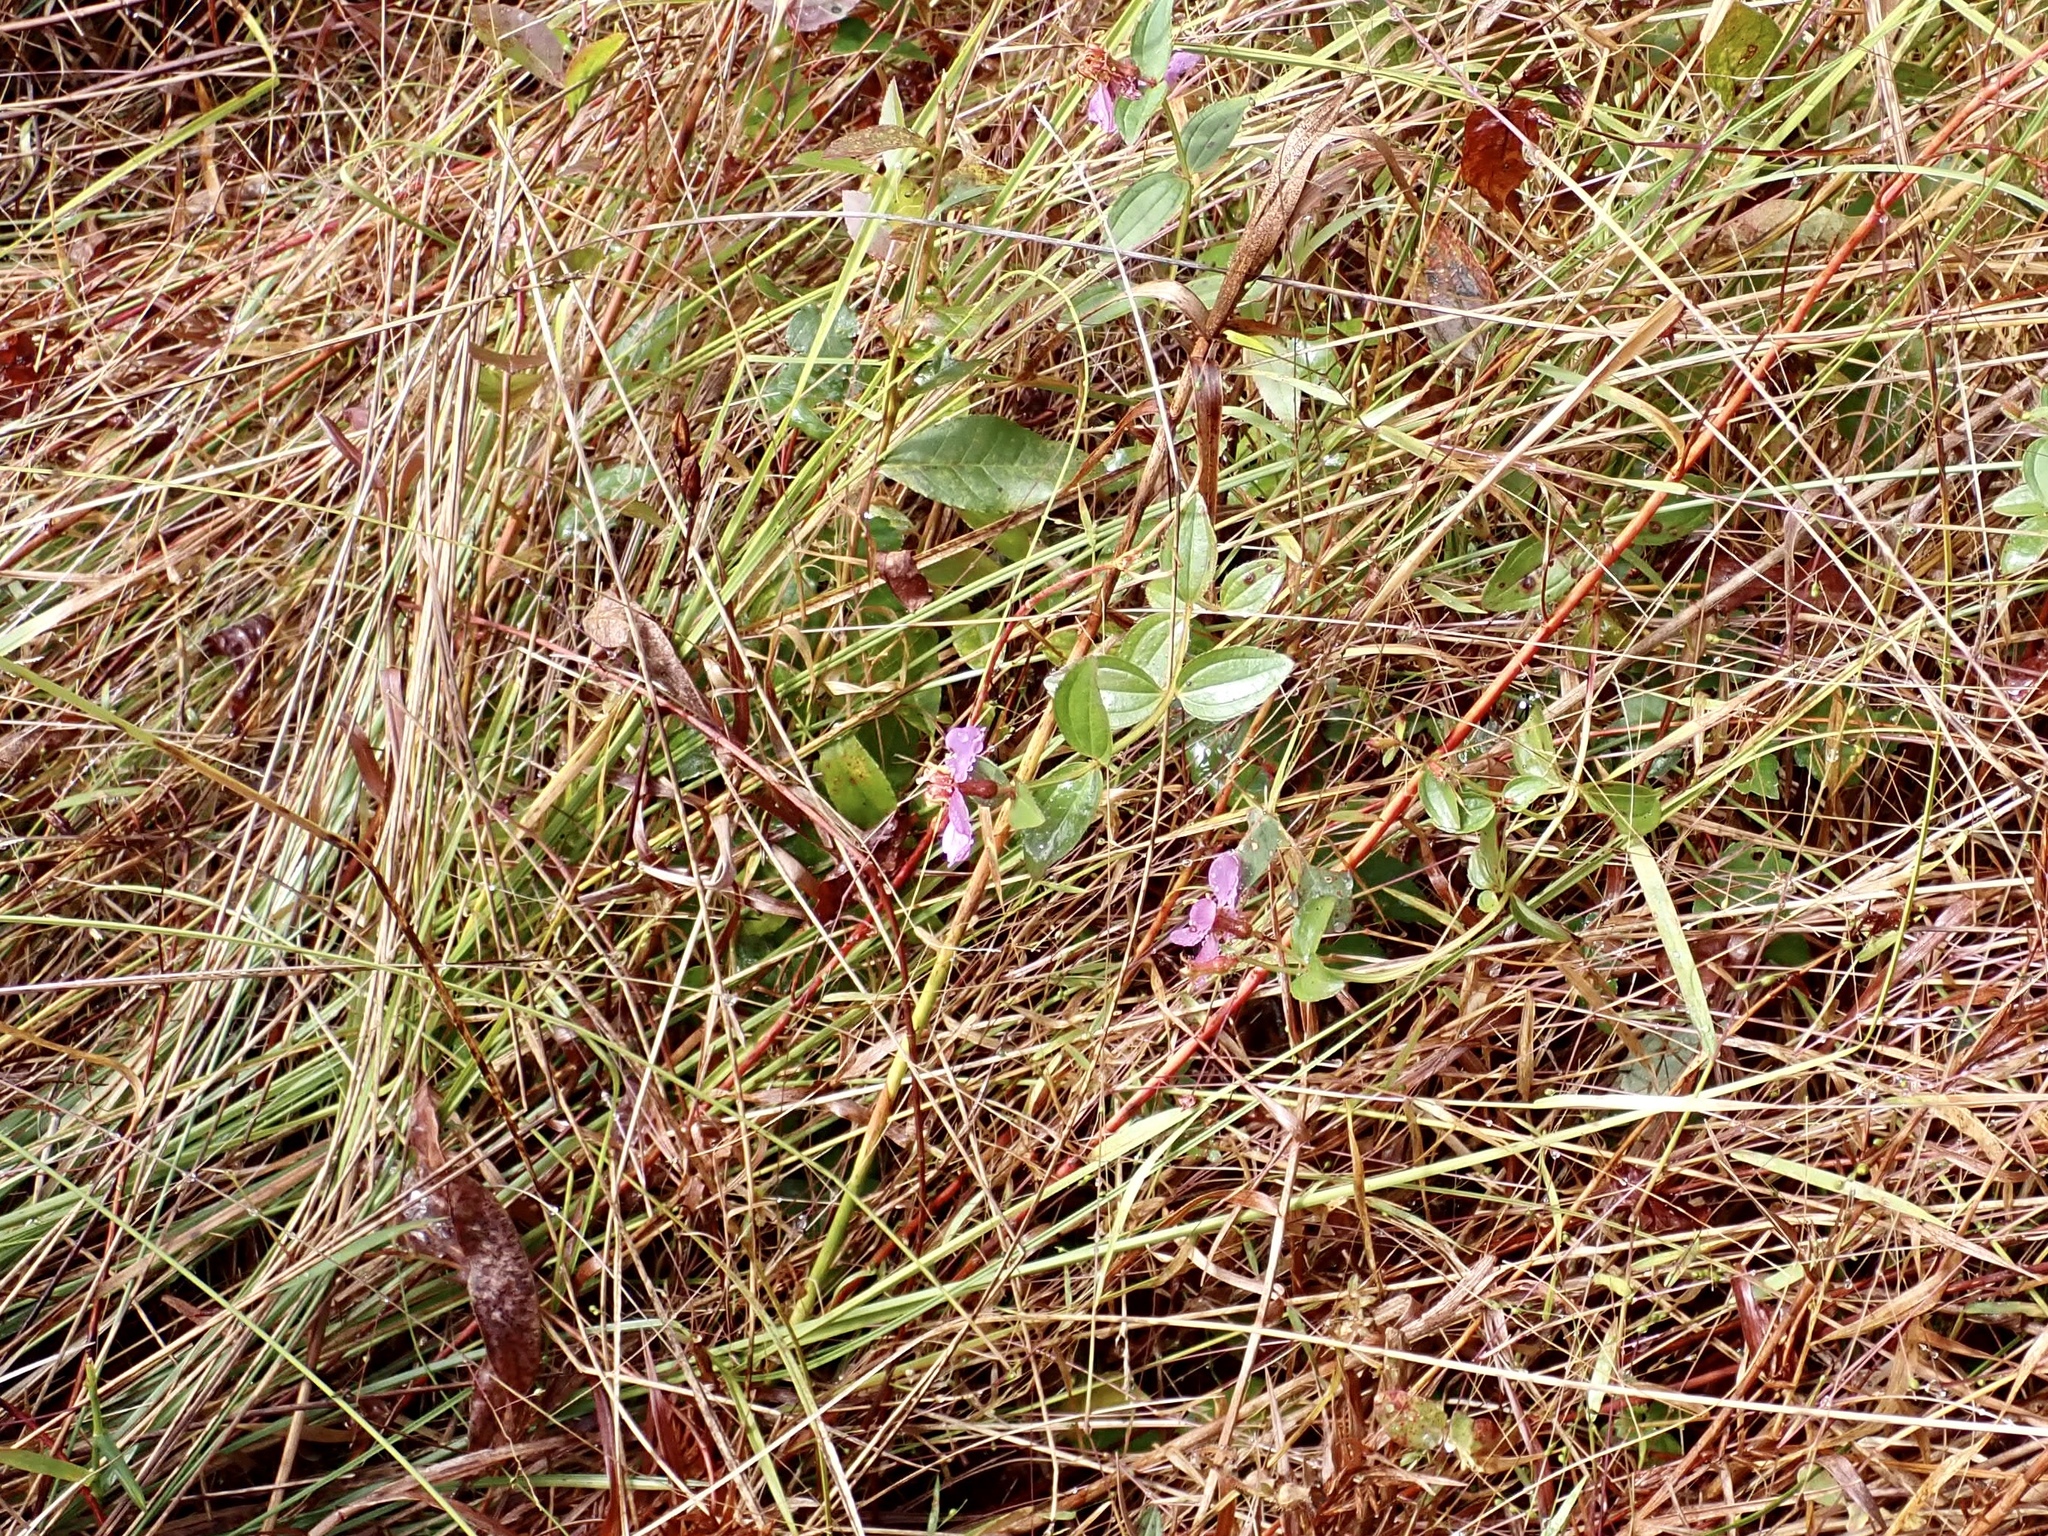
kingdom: Plantae
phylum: Tracheophyta
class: Magnoliopsida
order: Myrtales
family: Melastomataceae
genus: Rhexia
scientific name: Rhexia virginica
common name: Common meadow beauty
